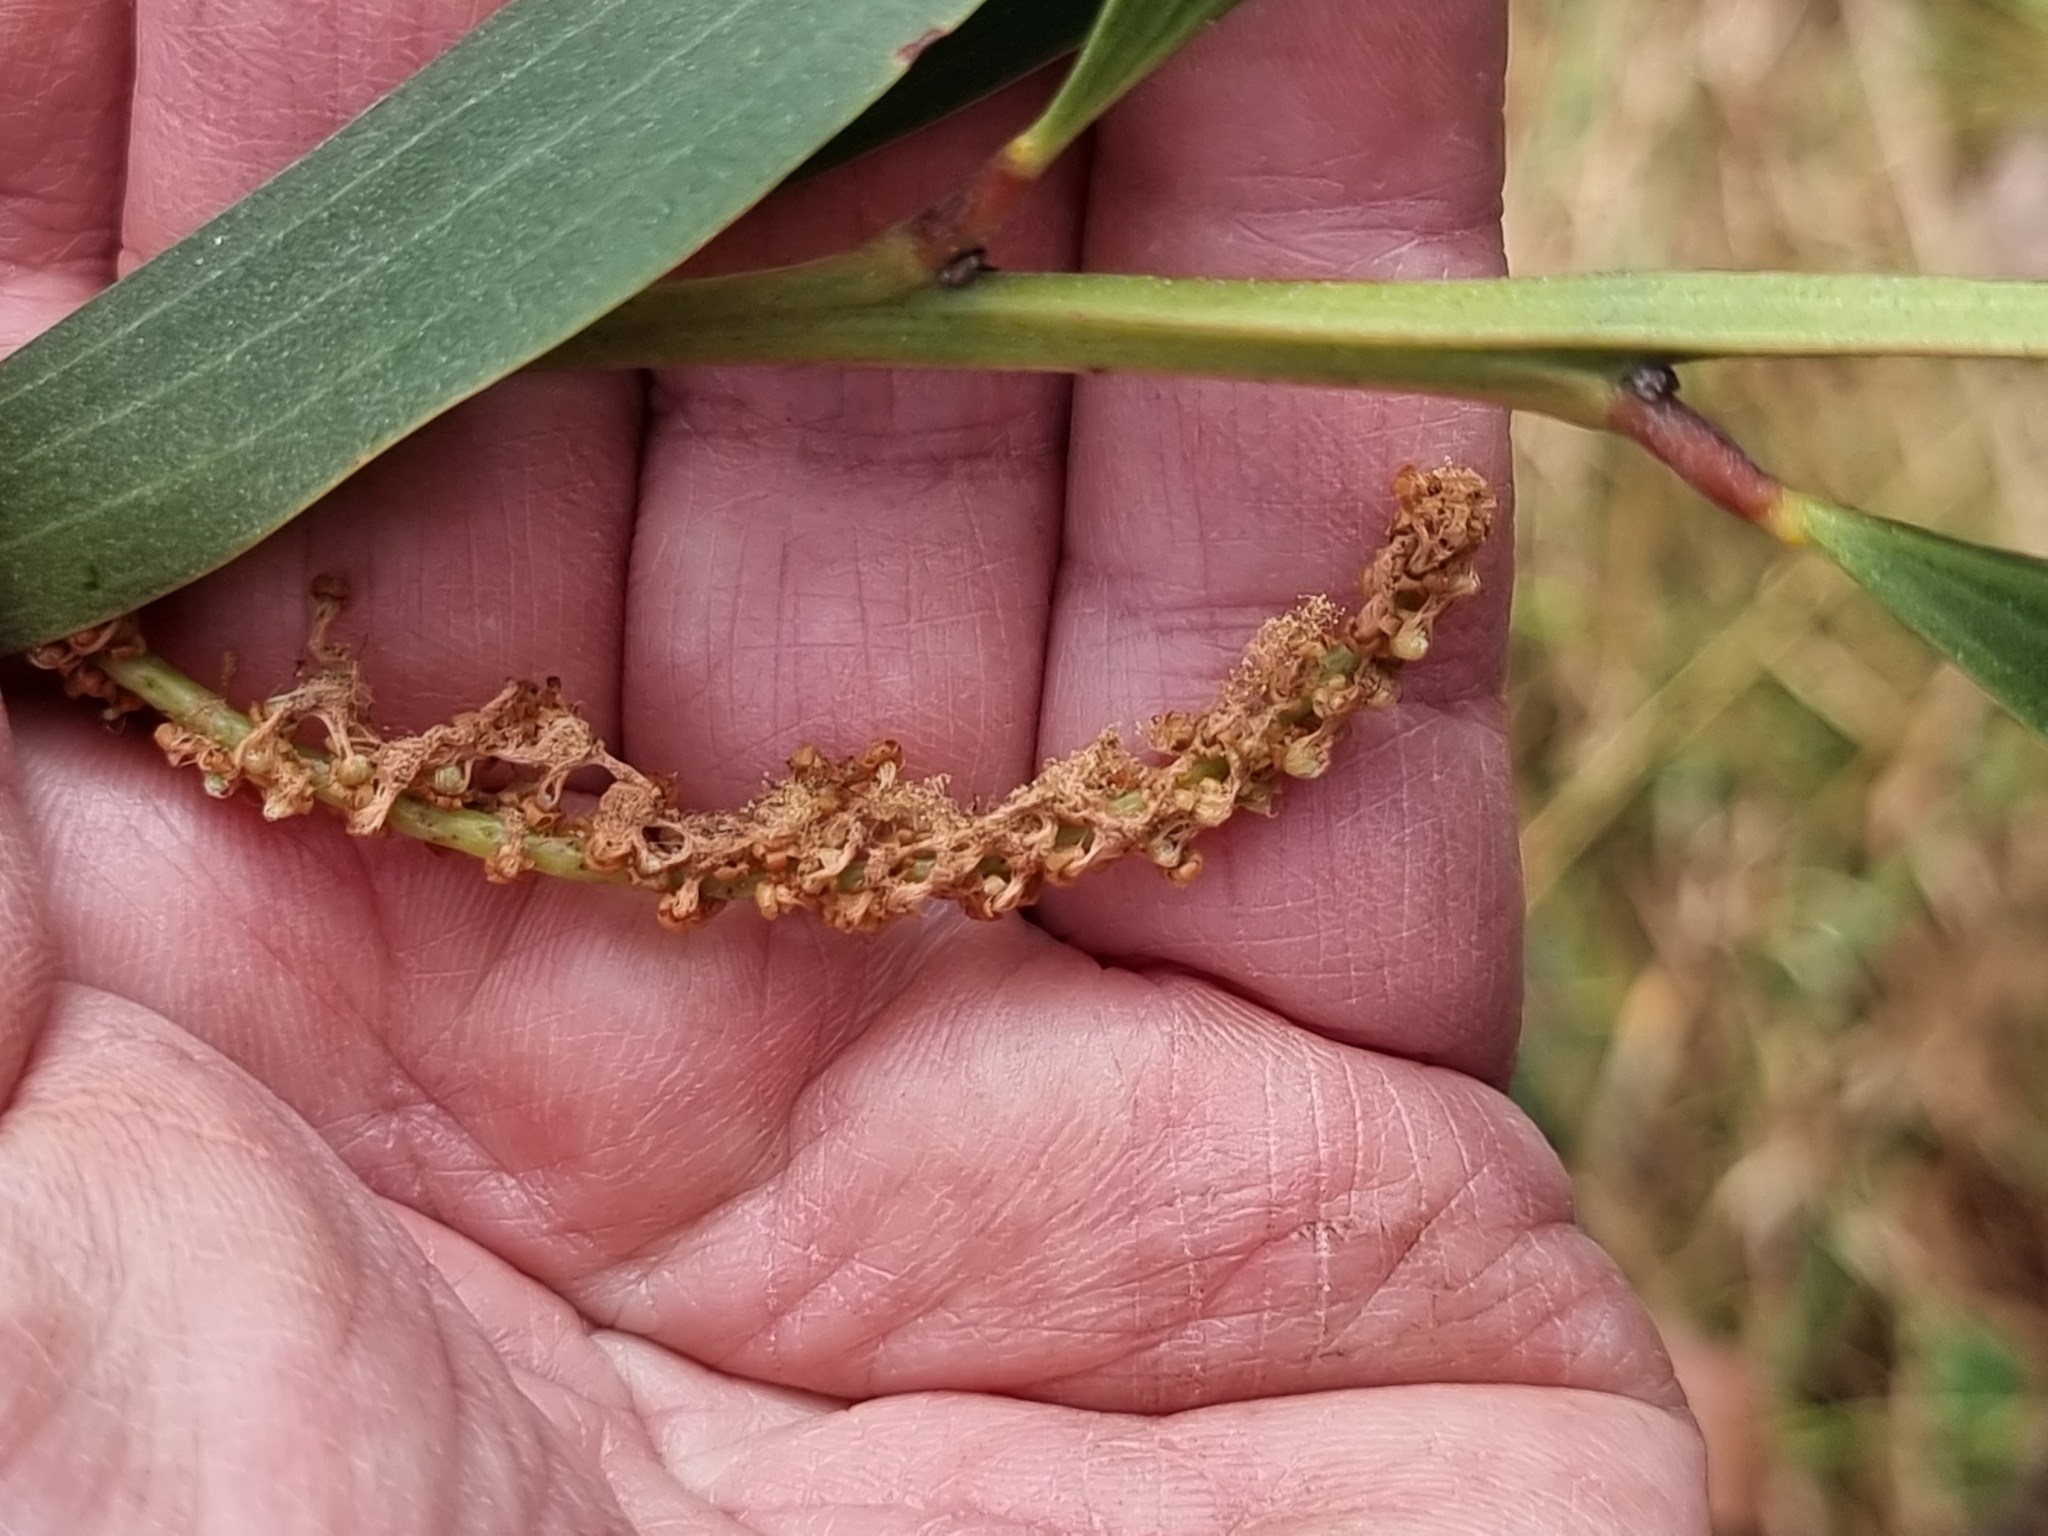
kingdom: Plantae
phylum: Tracheophyta
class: Magnoliopsida
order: Fabales
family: Fabaceae
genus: Acacia
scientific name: Acacia concurrens
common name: Black wattle
